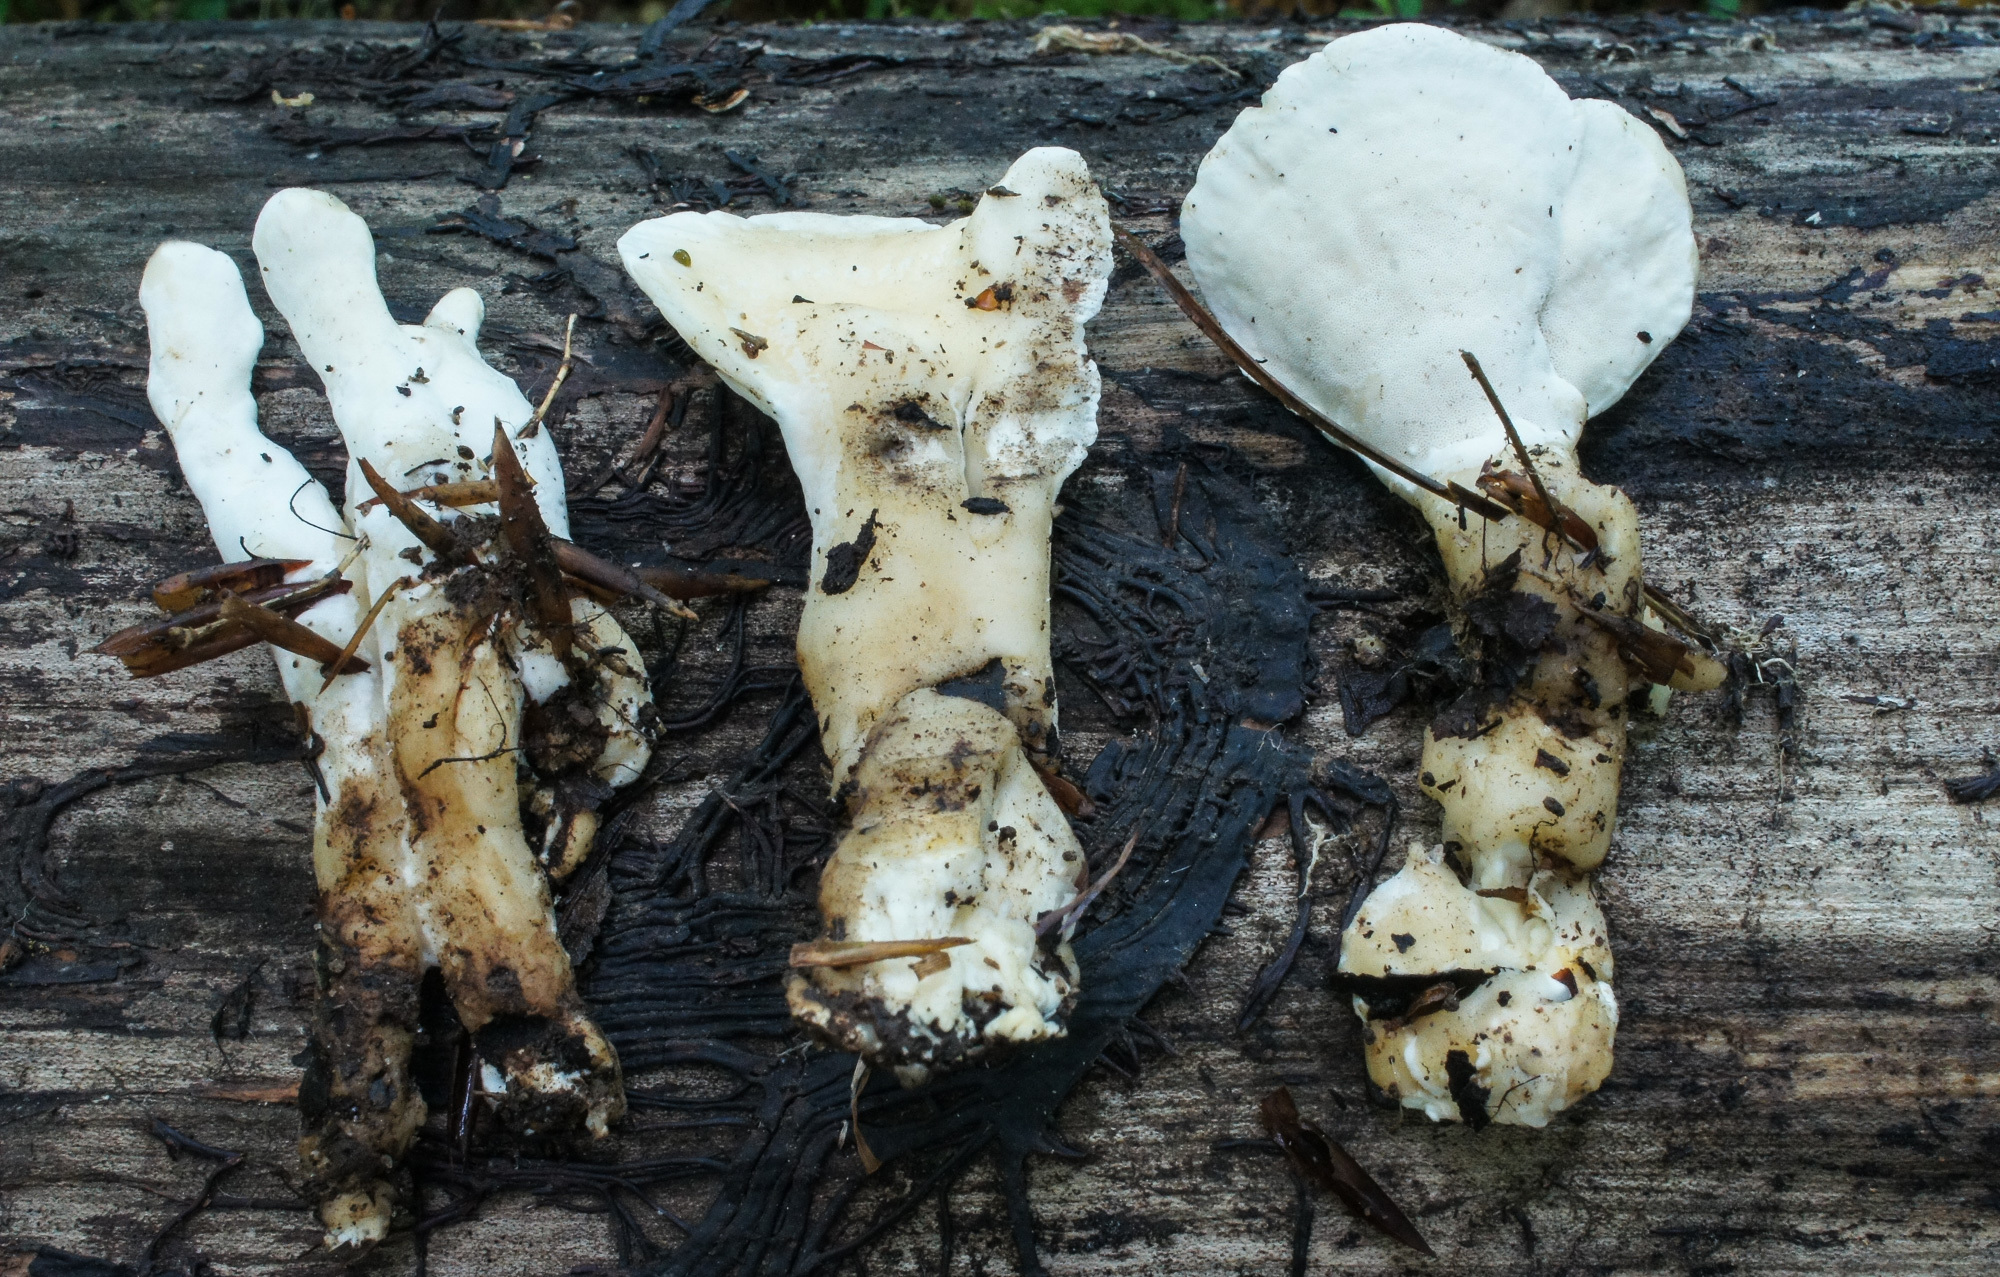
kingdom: Fungi
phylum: Basidiomycota
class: Agaricomycetes
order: Polyporales
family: Steccherinaceae
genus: Loweomyces
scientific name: Loweomyces fractipes
